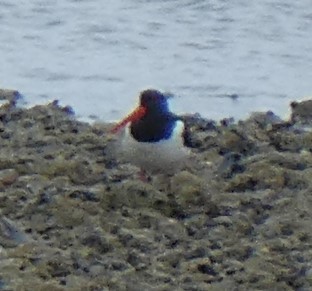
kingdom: Animalia
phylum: Chordata
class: Aves
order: Charadriiformes
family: Haematopodidae
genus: Haematopus
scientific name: Haematopus ostralegus
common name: Eurasian oystercatcher
